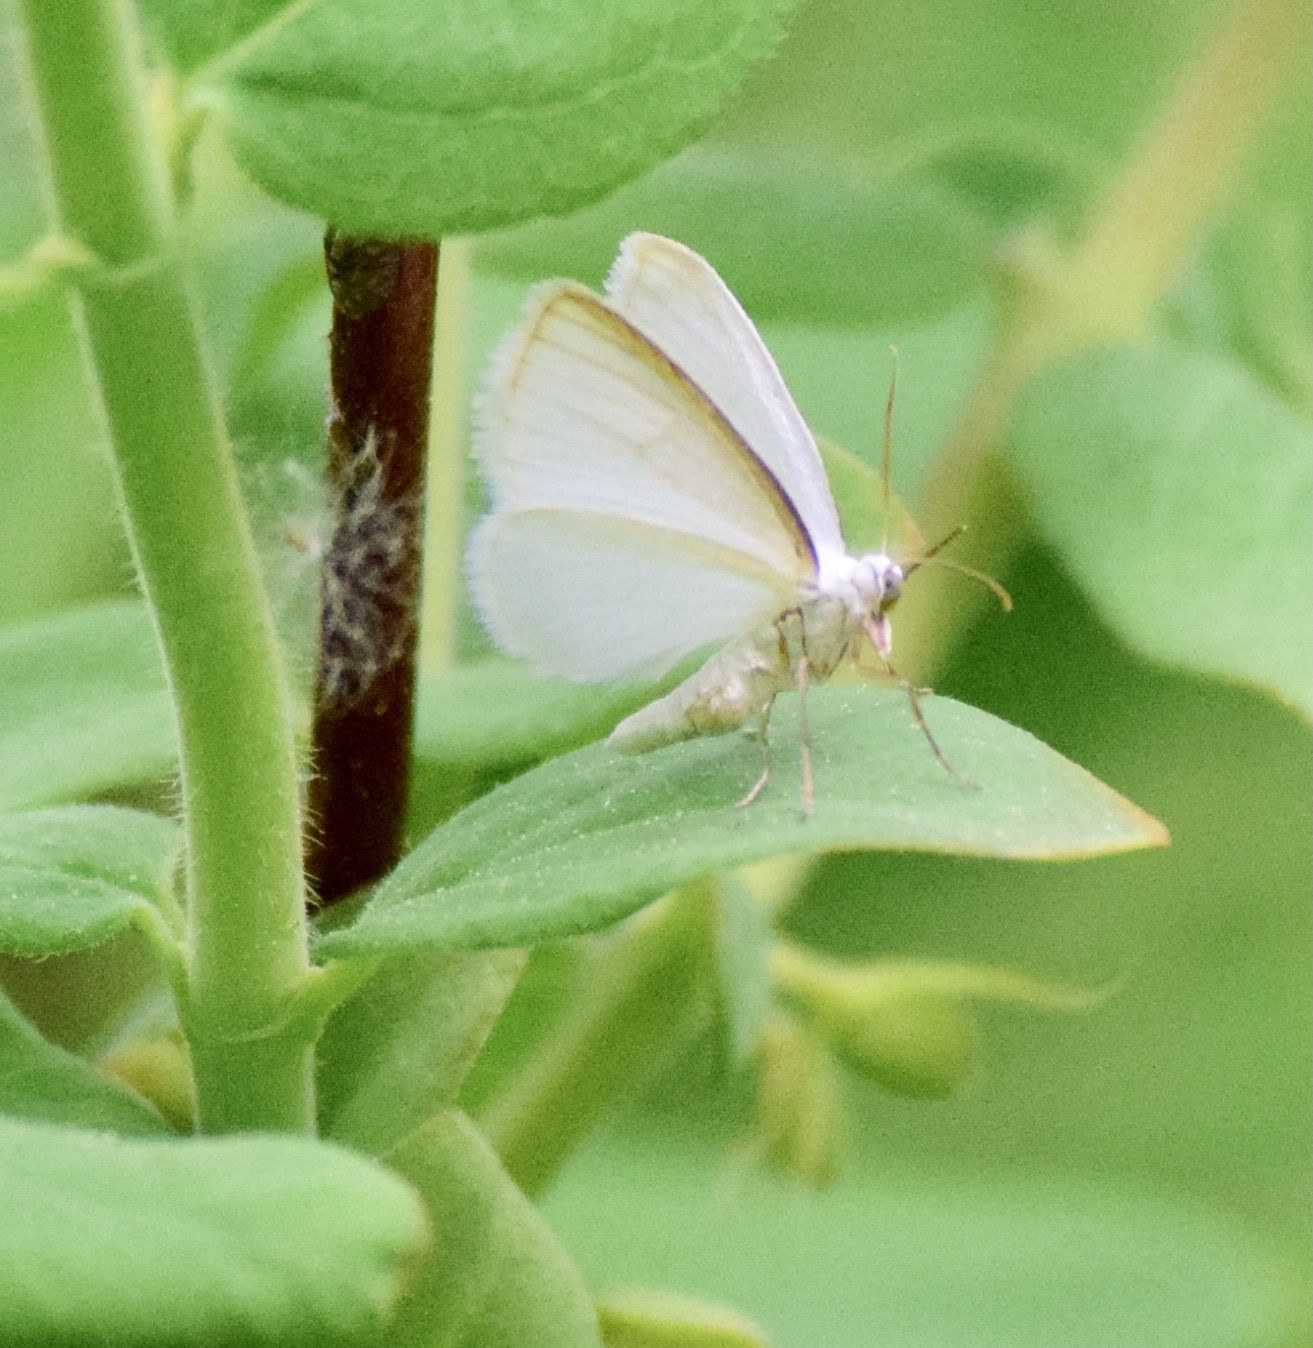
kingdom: Animalia
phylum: Arthropoda
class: Insecta
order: Lepidoptera
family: Geometridae
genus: Lomographa
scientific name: Lomographa vestaliata
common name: White spring moth
